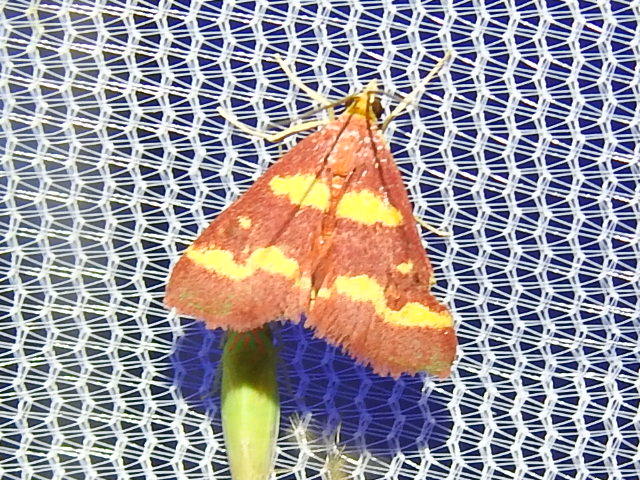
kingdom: Animalia
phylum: Arthropoda
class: Insecta
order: Lepidoptera
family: Crambidae
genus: Pyrausta
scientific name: Pyrausta tyralis
